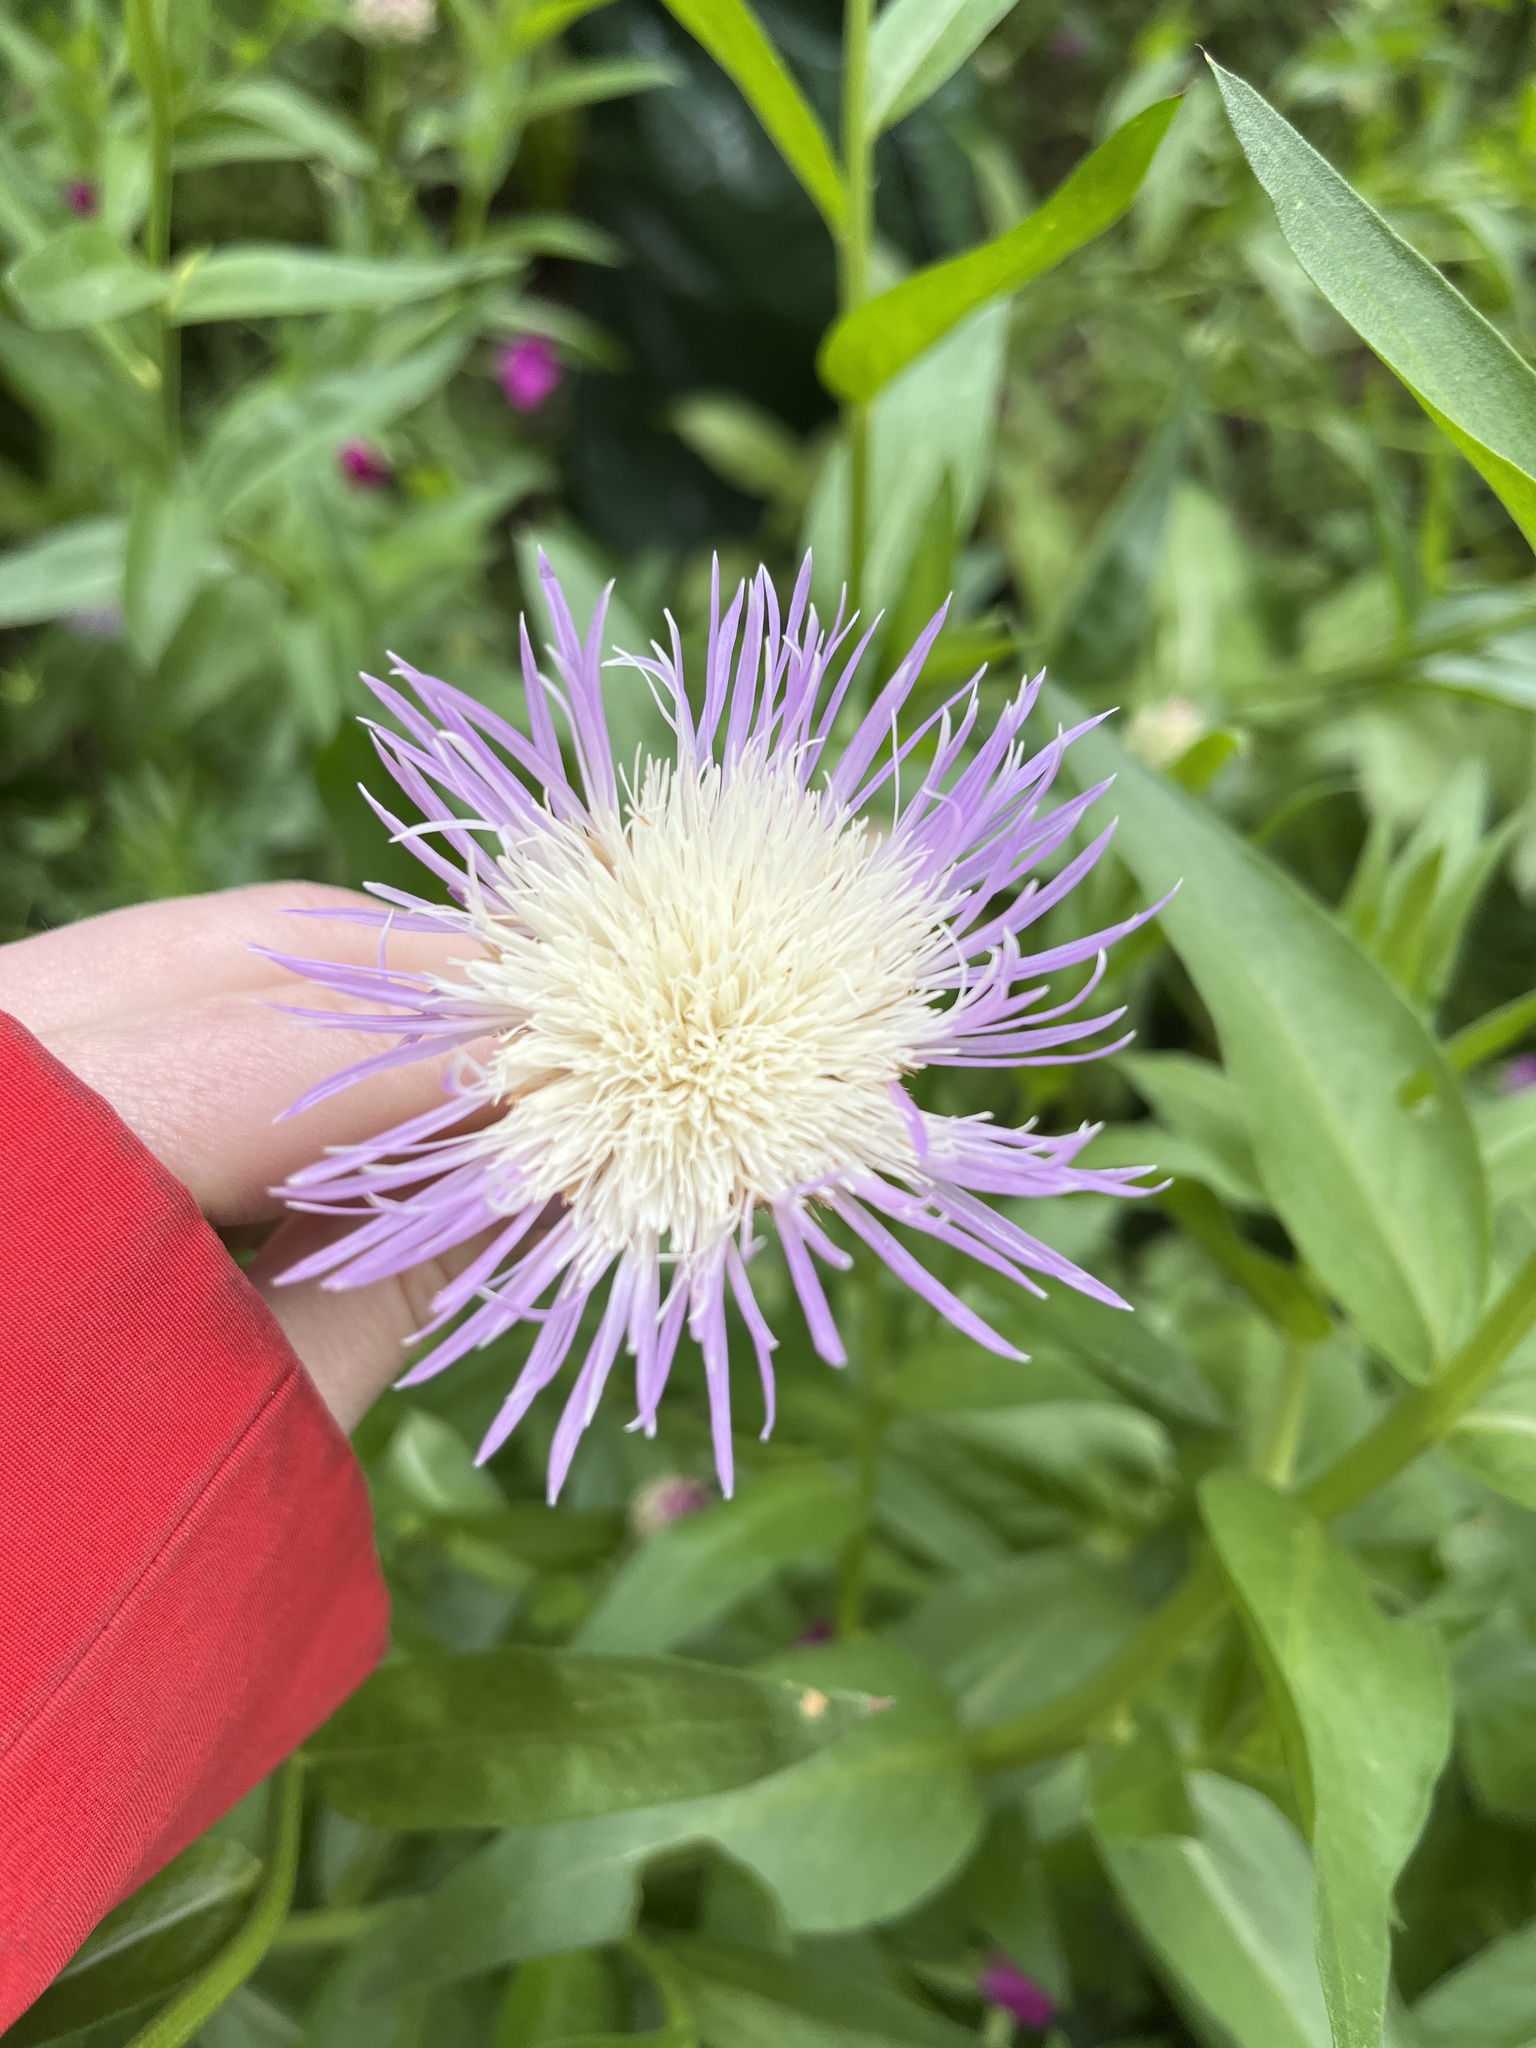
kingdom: Plantae
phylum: Tracheophyta
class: Magnoliopsida
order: Asterales
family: Asteraceae
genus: Plectocephalus
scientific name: Plectocephalus americanus
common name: American basket-flower
